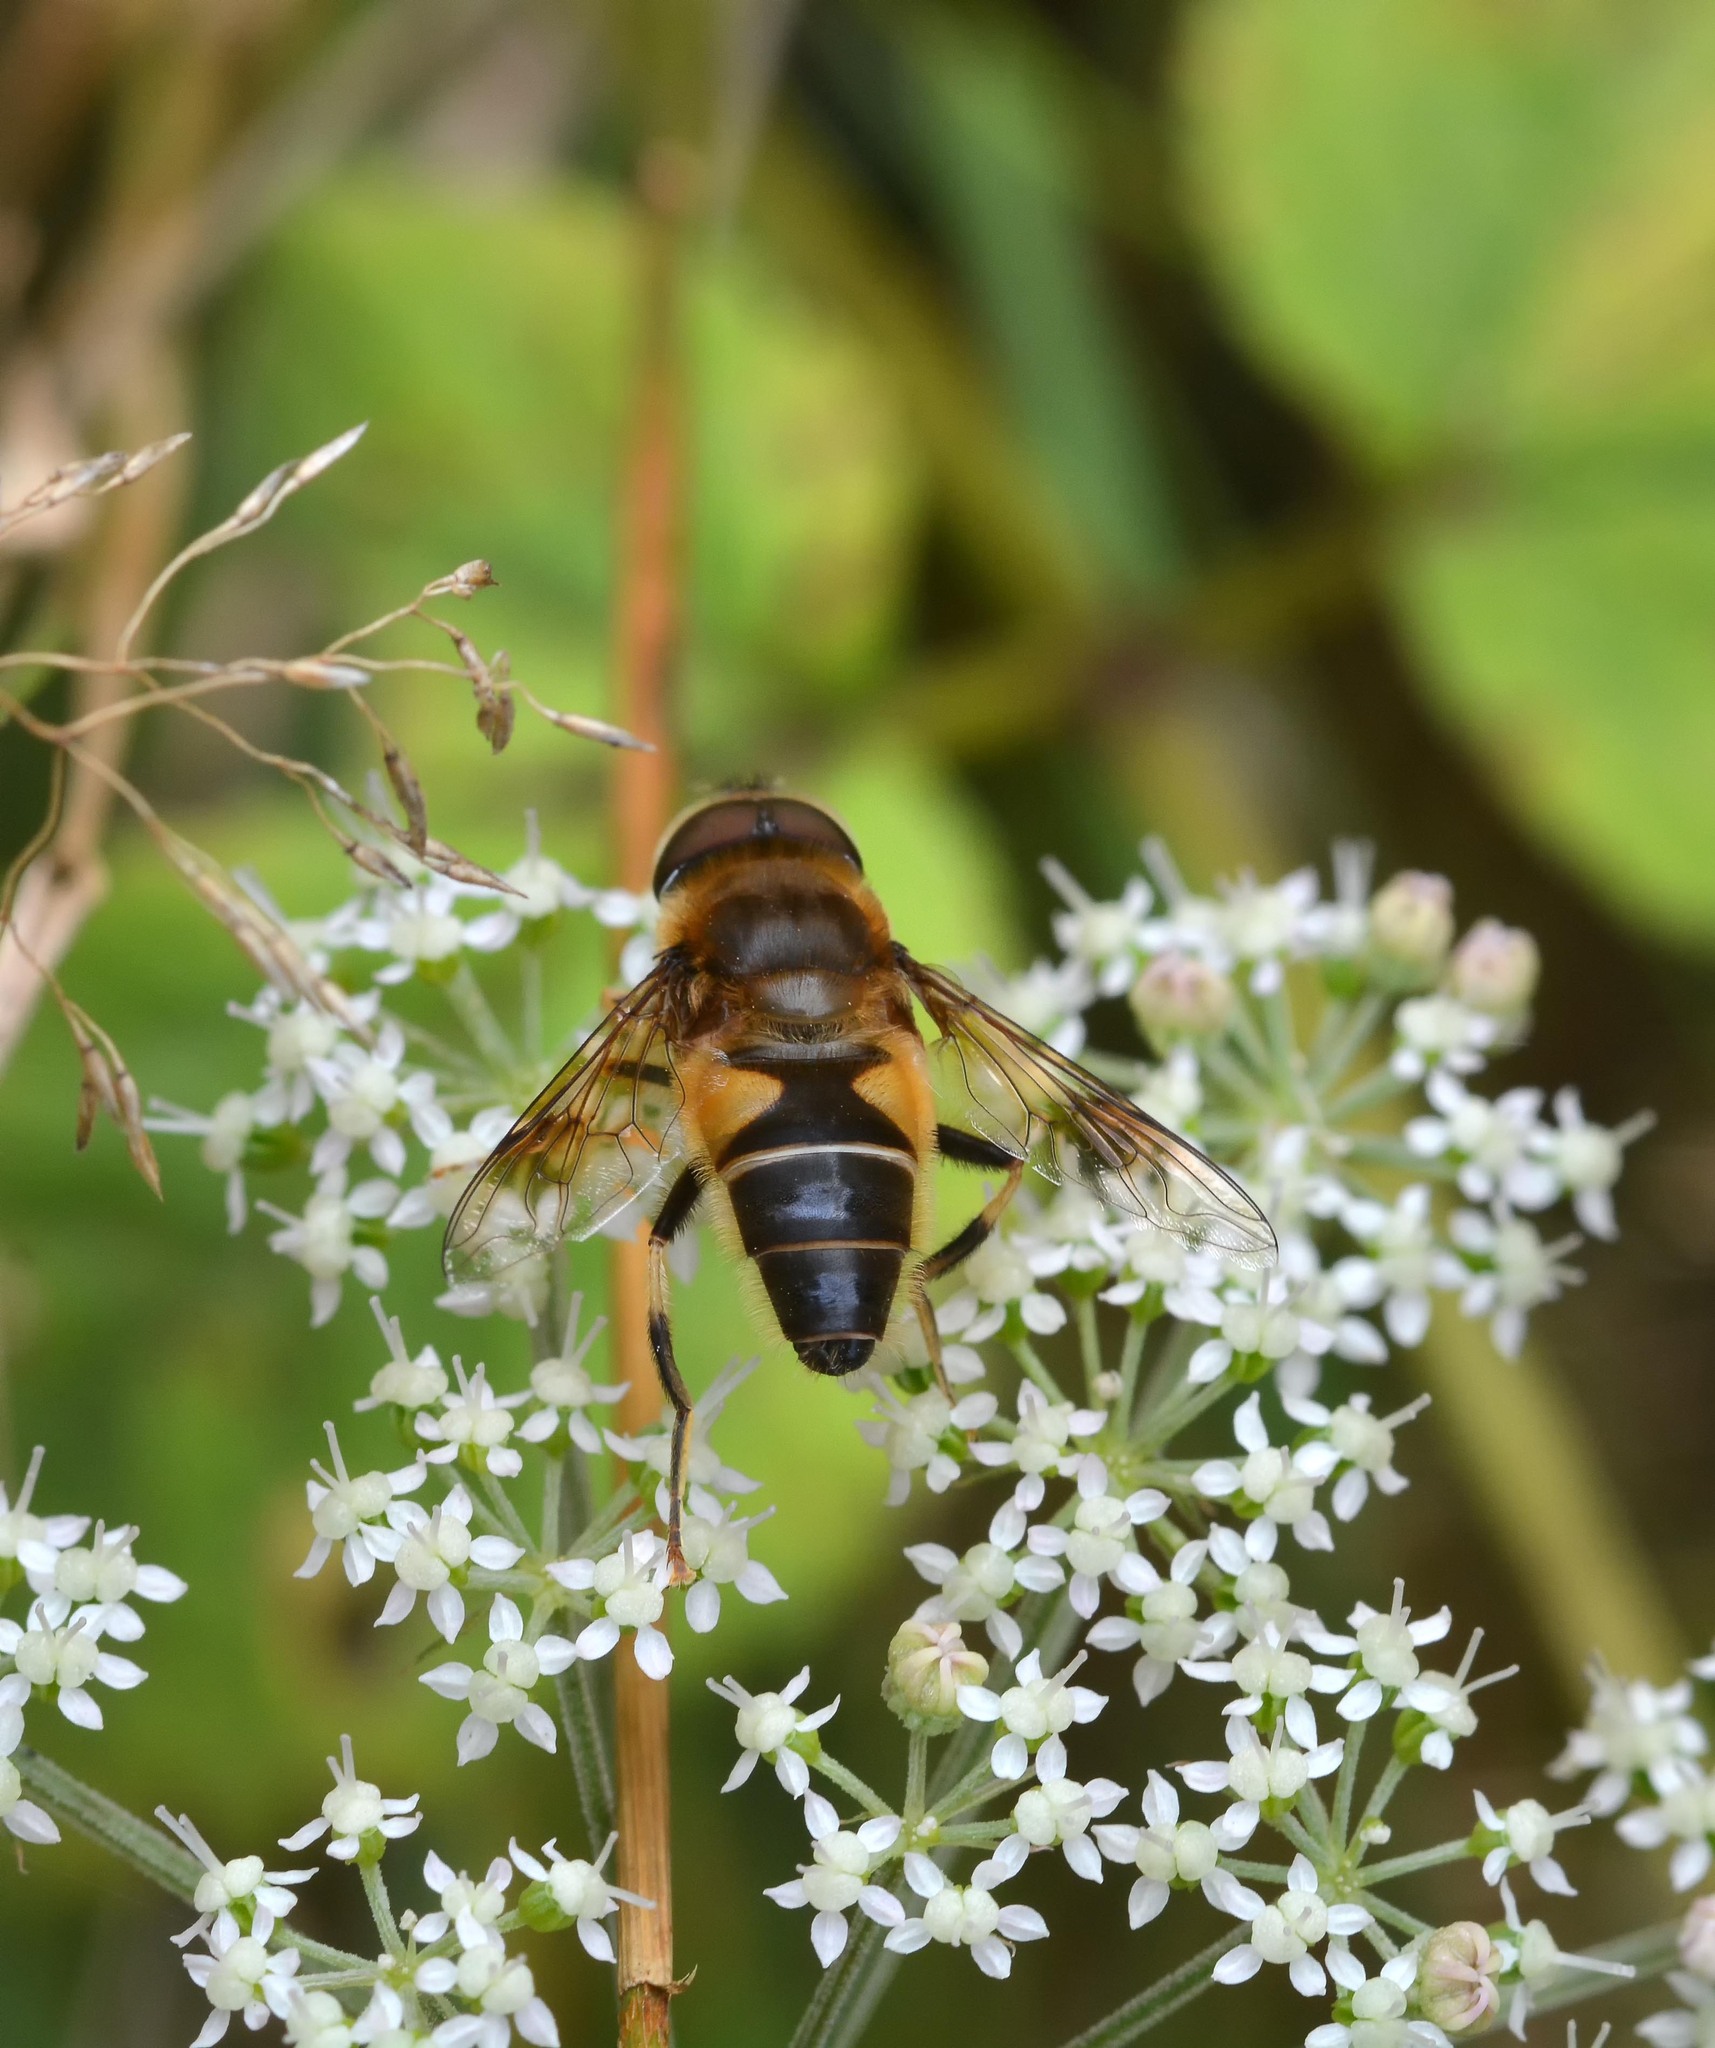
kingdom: Animalia
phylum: Arthropoda
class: Insecta
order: Diptera
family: Syrphidae
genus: Eristalis
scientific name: Eristalis pertinax
